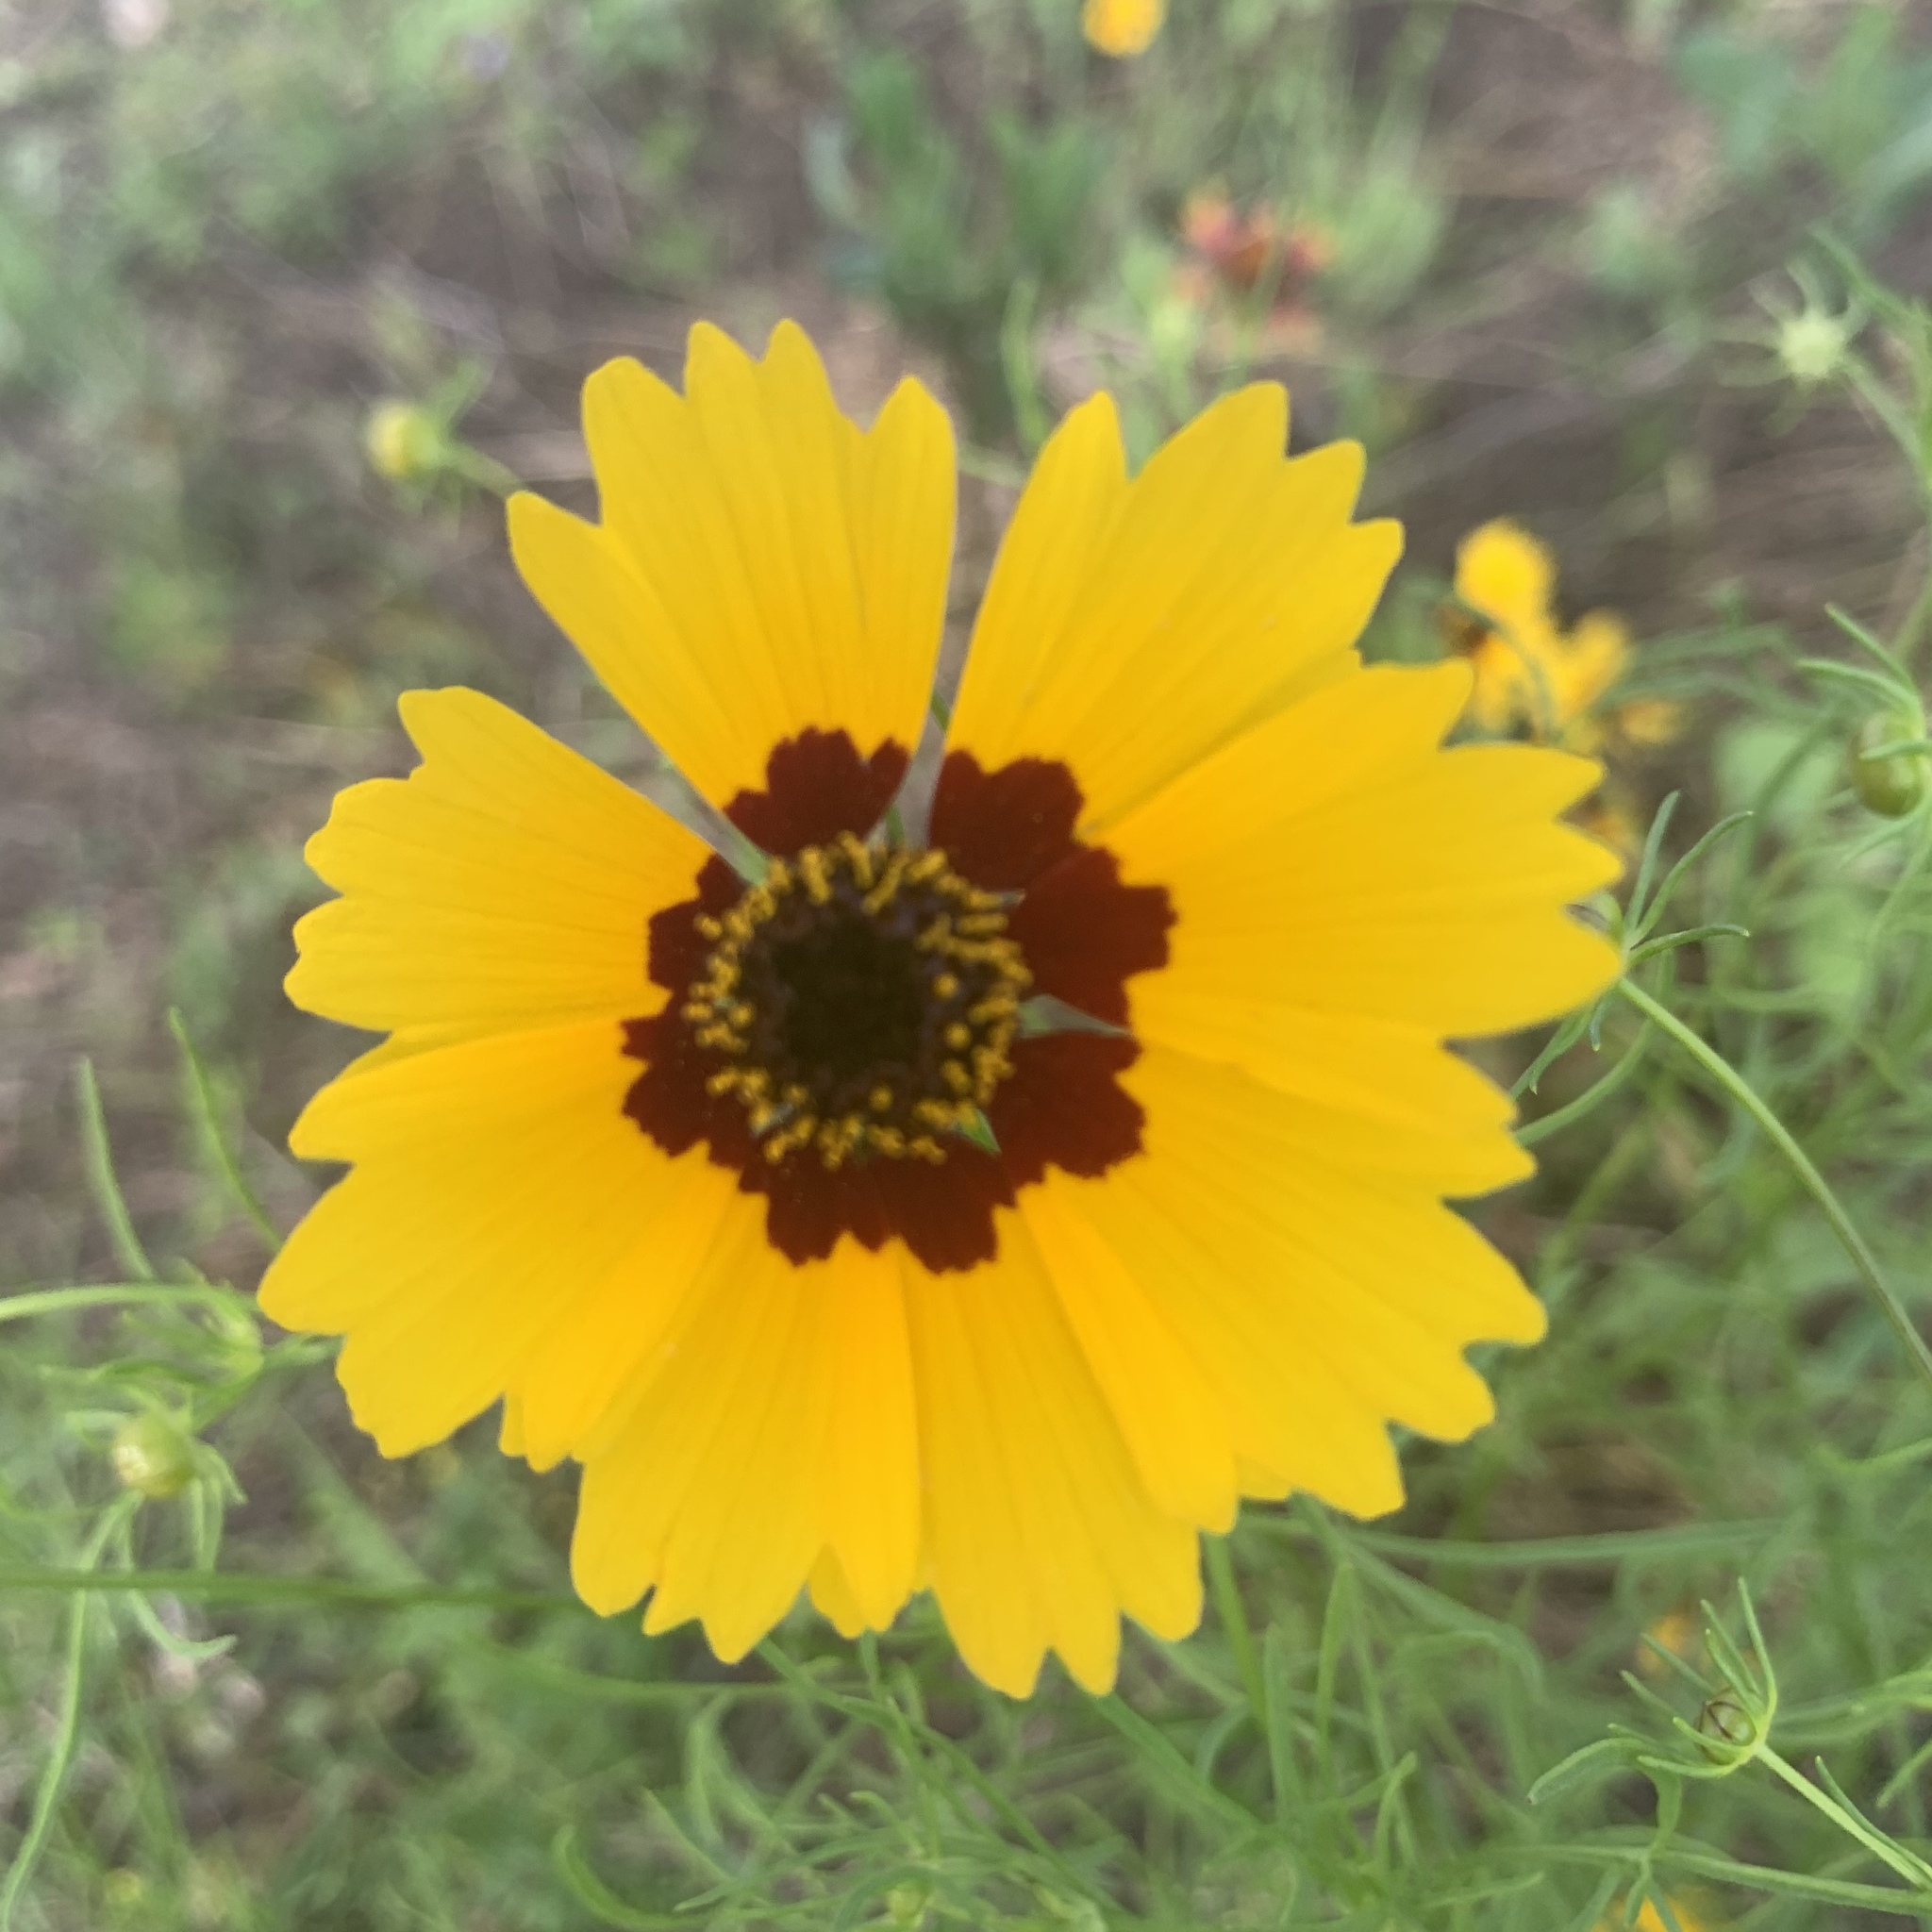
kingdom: Plantae
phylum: Tracheophyta
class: Magnoliopsida
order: Asterales
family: Asteraceae
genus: Coreopsis
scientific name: Coreopsis basalis
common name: Golden-mane coreopsis
